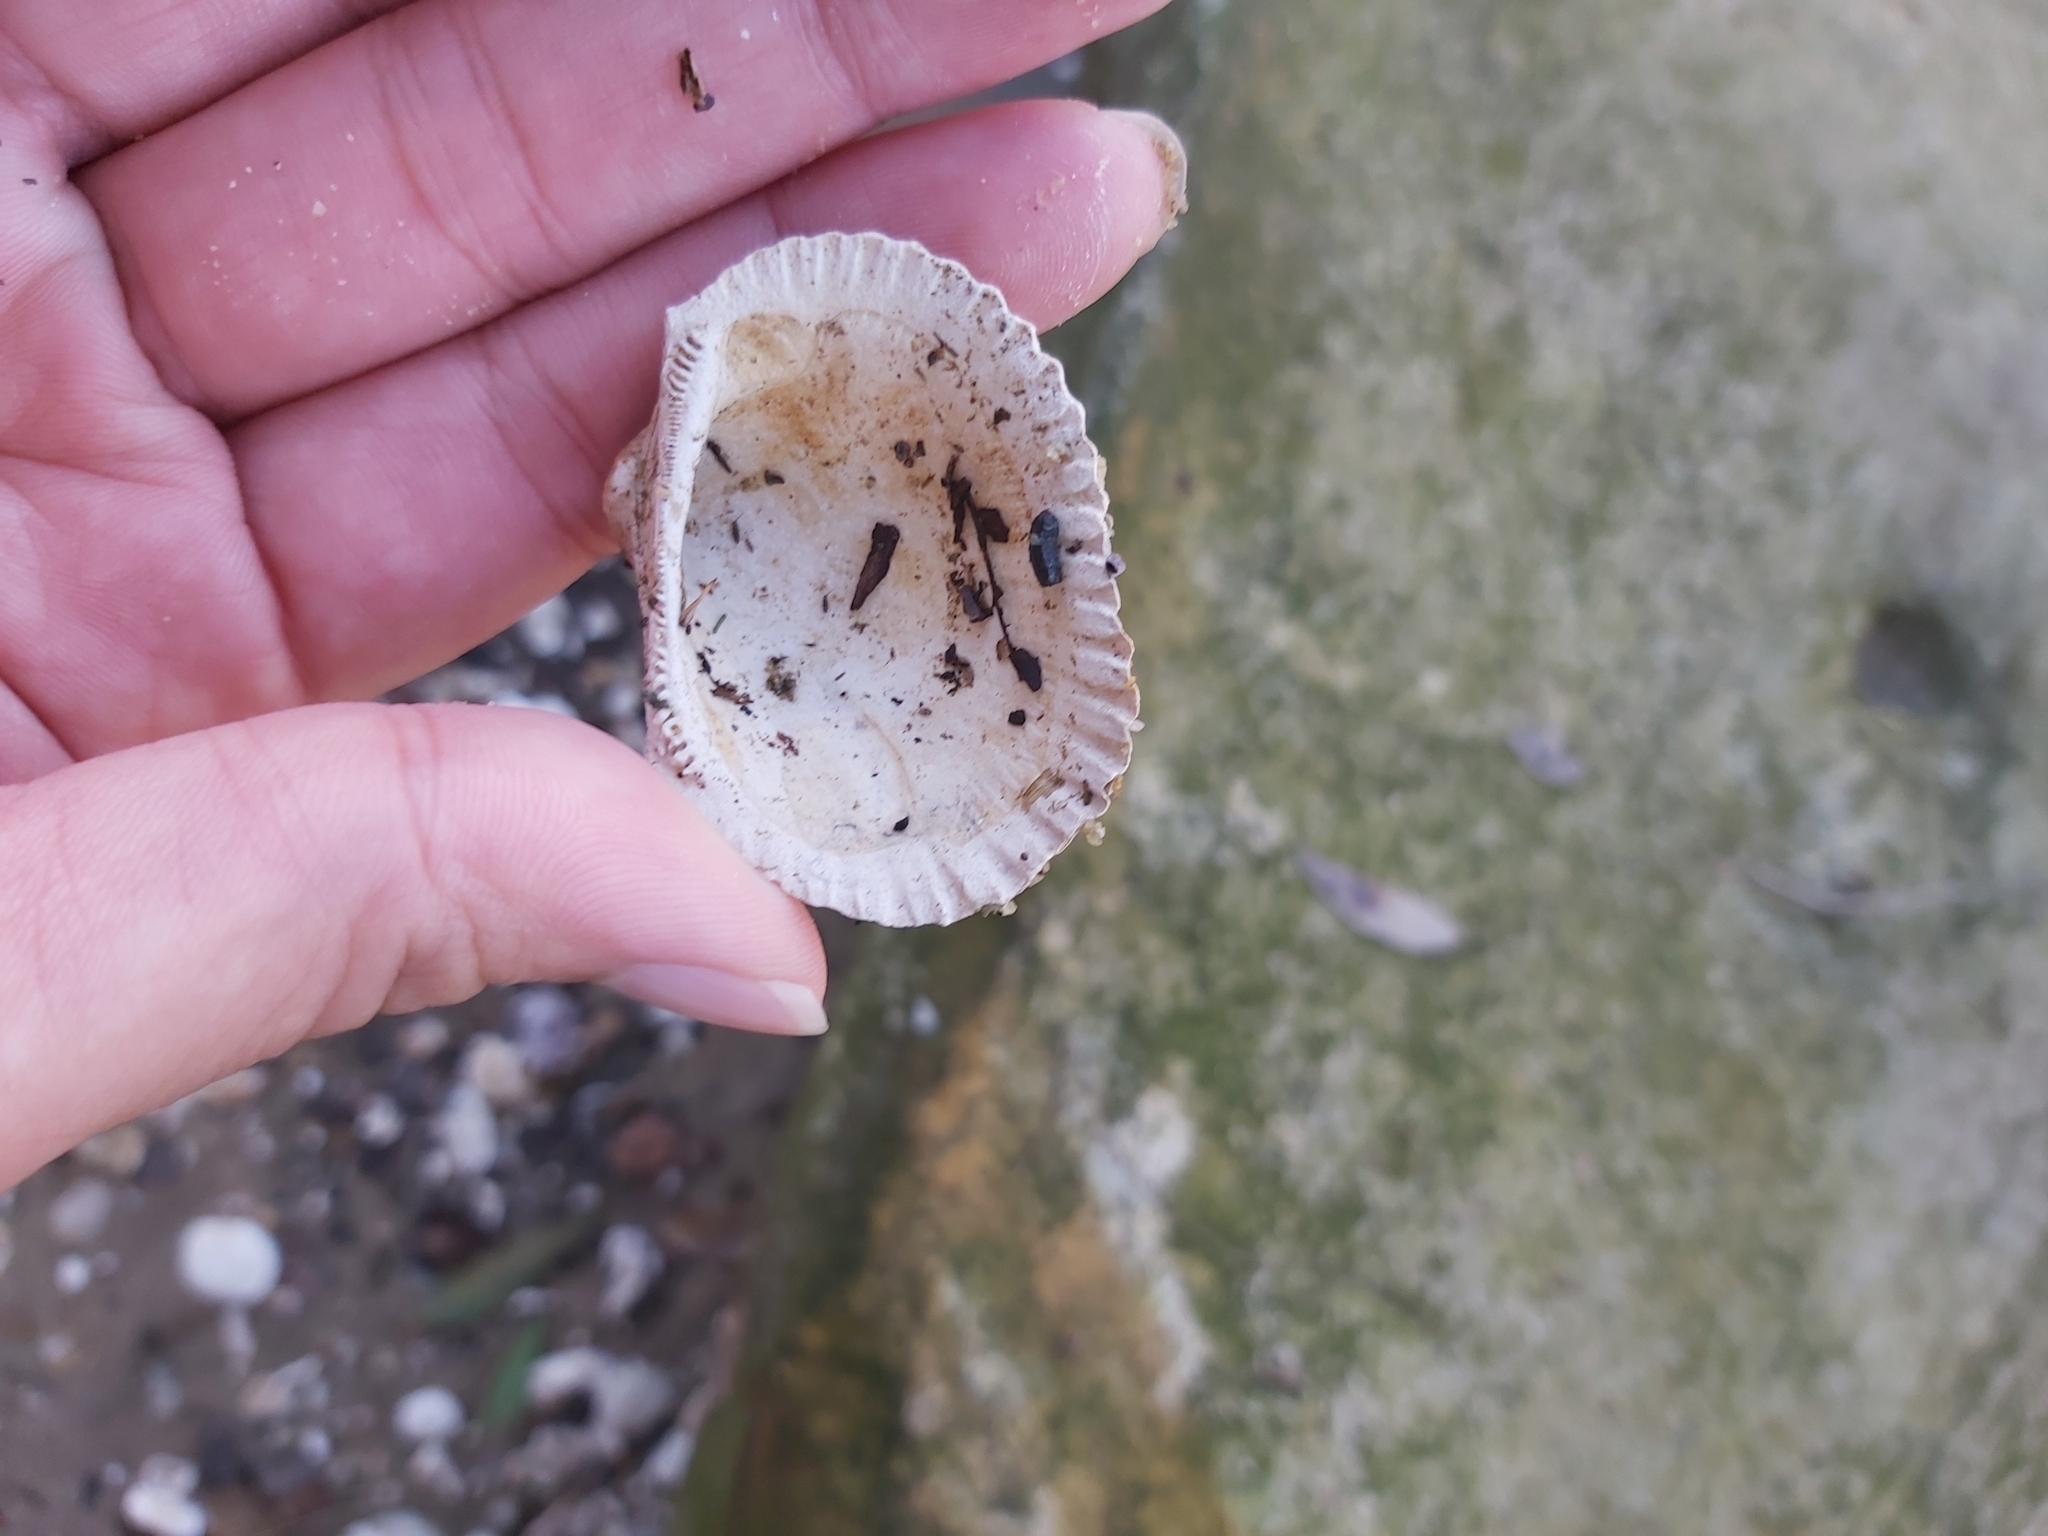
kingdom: Animalia
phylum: Mollusca
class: Bivalvia
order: Arcida
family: Arcidae
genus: Anadara
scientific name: Anadara trapezia
